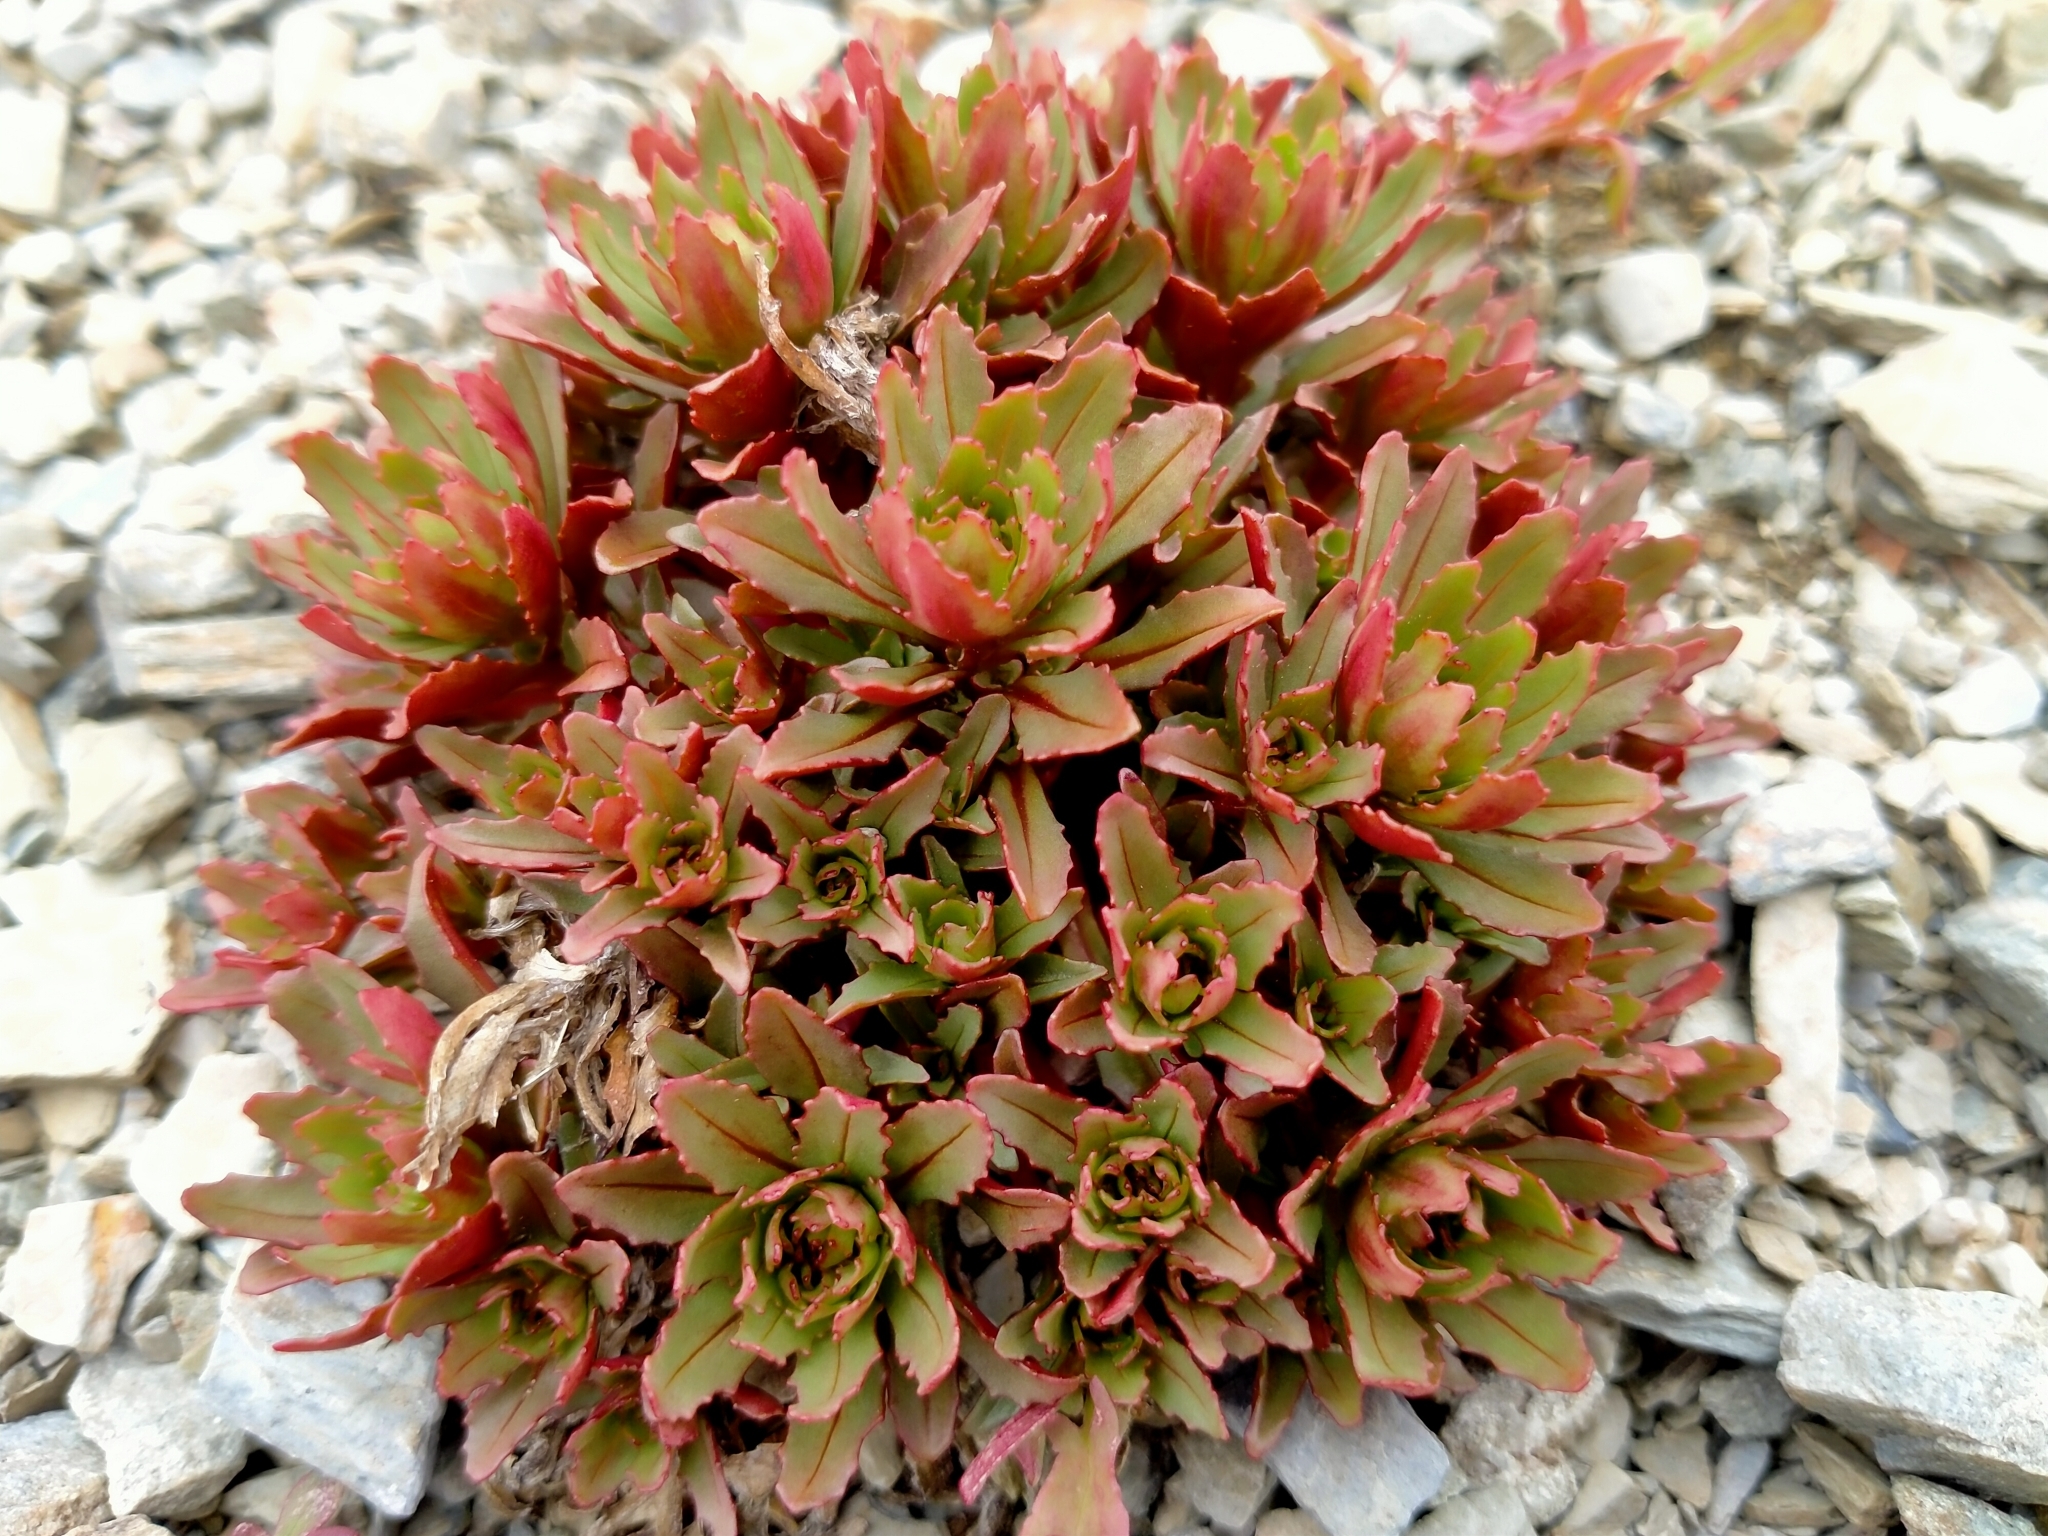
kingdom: Plantae
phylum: Tracheophyta
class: Magnoliopsida
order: Myrtales
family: Onagraceae
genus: Epilobium
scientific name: Epilobium pycnostachyum
